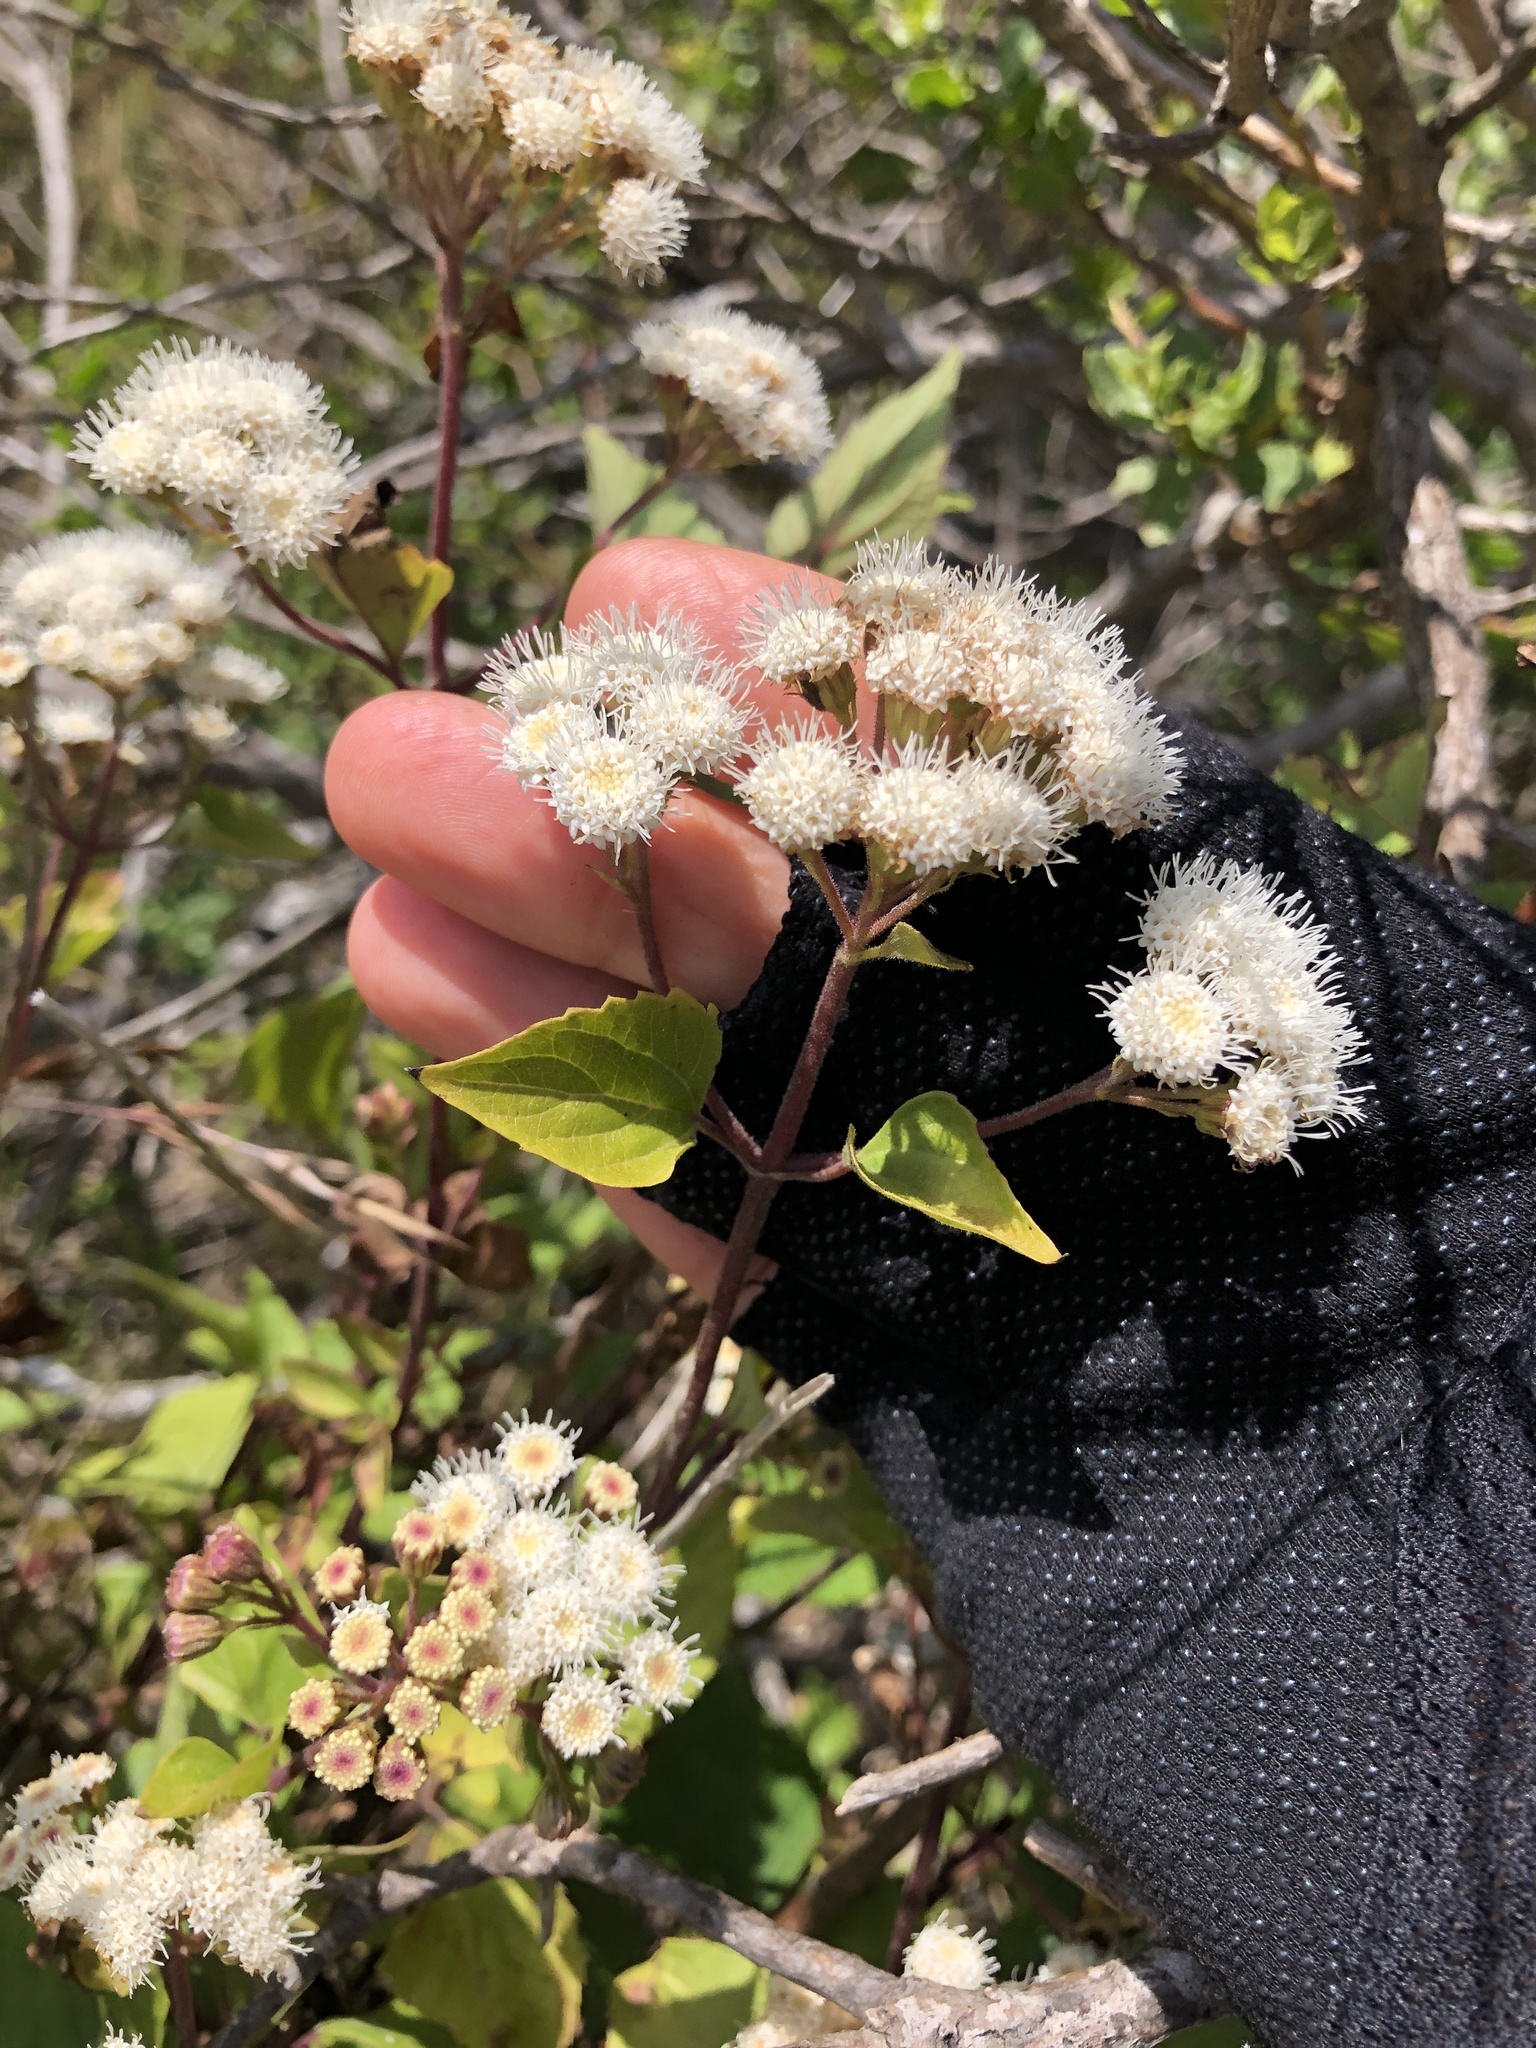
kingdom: Plantae
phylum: Tracheophyta
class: Magnoliopsida
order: Asterales
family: Asteraceae
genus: Ageratina
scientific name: Ageratina adenophora
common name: Sticky snakeroot
